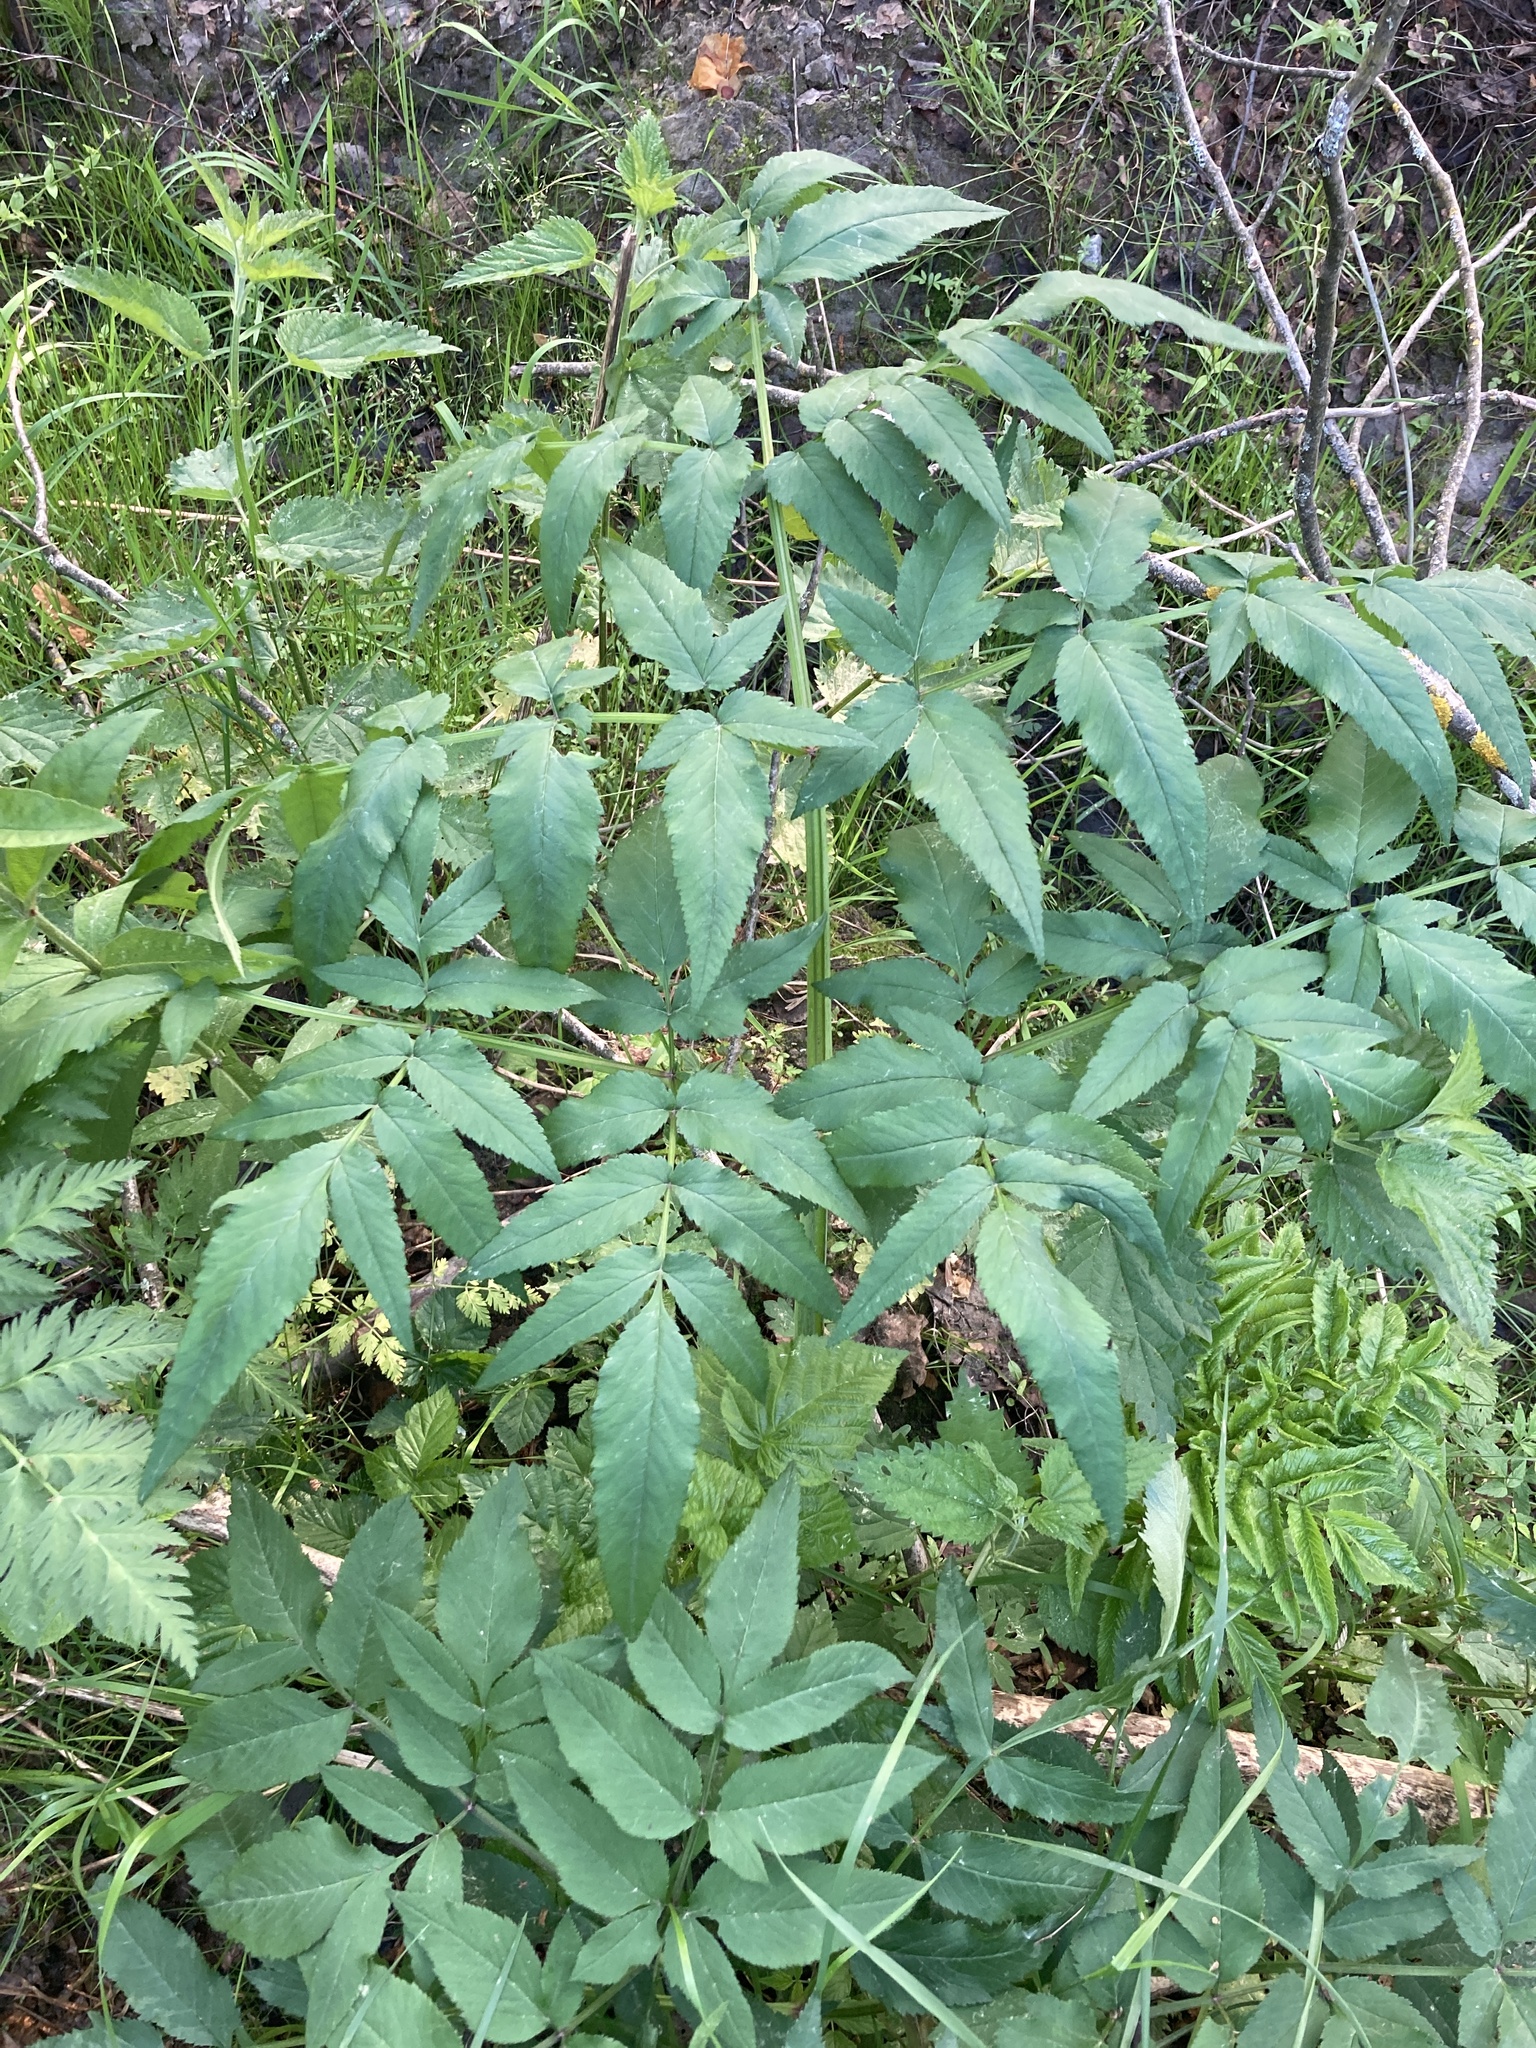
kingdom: Plantae
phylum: Tracheophyta
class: Magnoliopsida
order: Apiales
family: Apiaceae
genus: Angelica
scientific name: Angelica sylvestris
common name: Wild angelica
